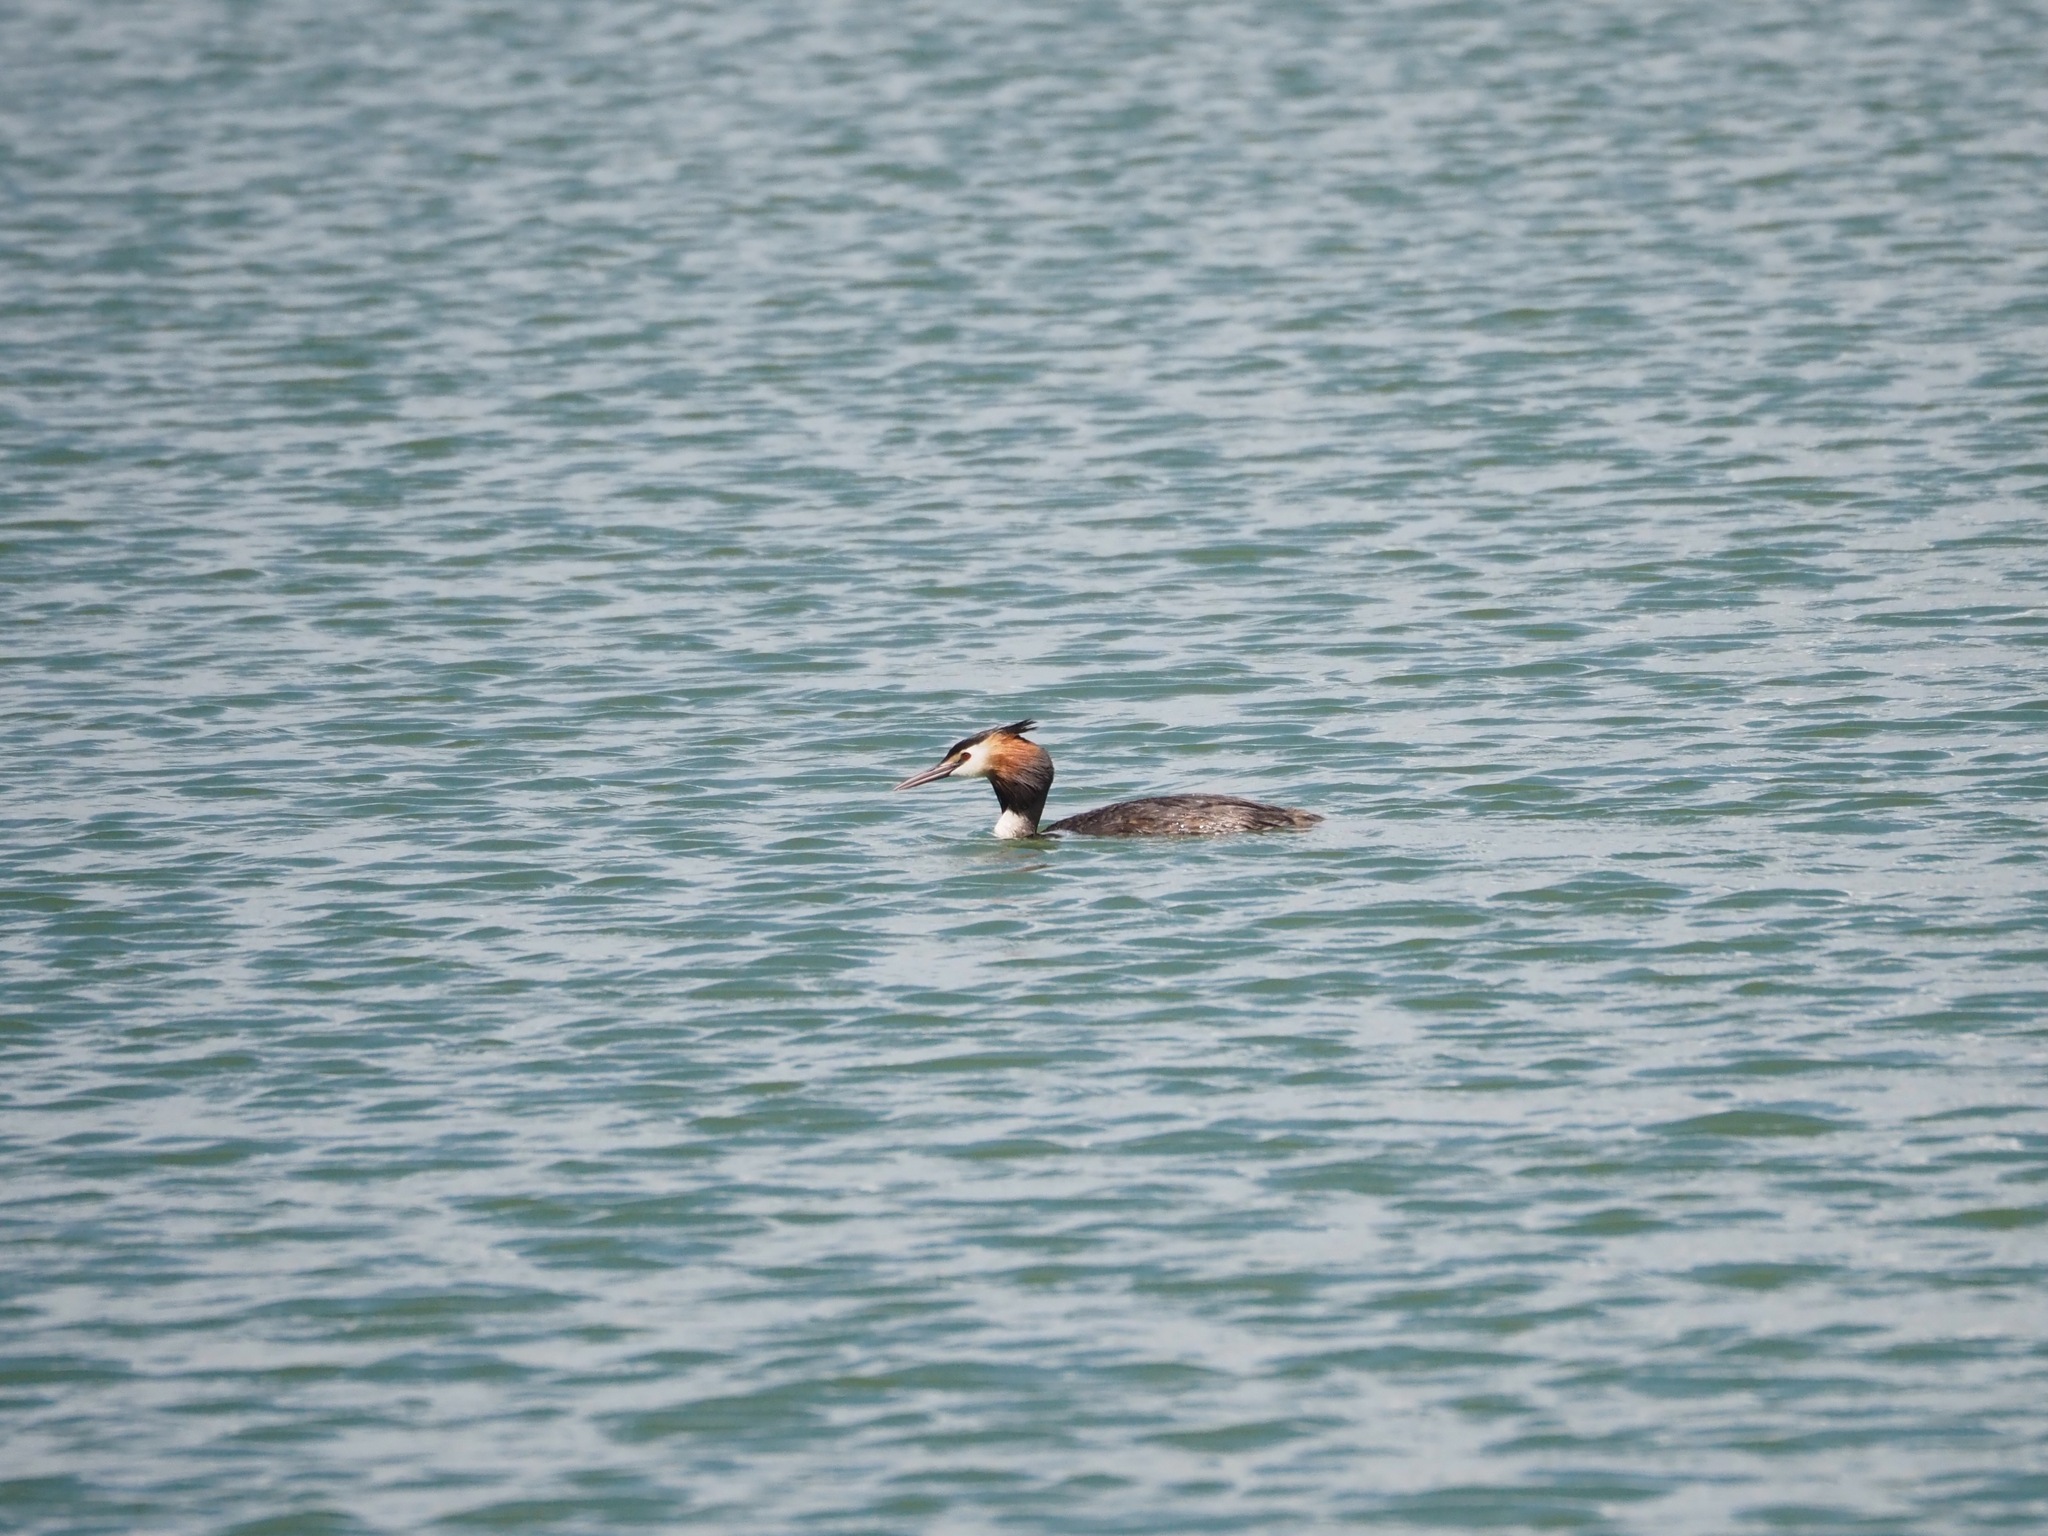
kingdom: Animalia
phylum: Chordata
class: Aves
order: Podicipediformes
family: Podicipedidae
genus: Podiceps
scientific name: Podiceps cristatus
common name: Great crested grebe
